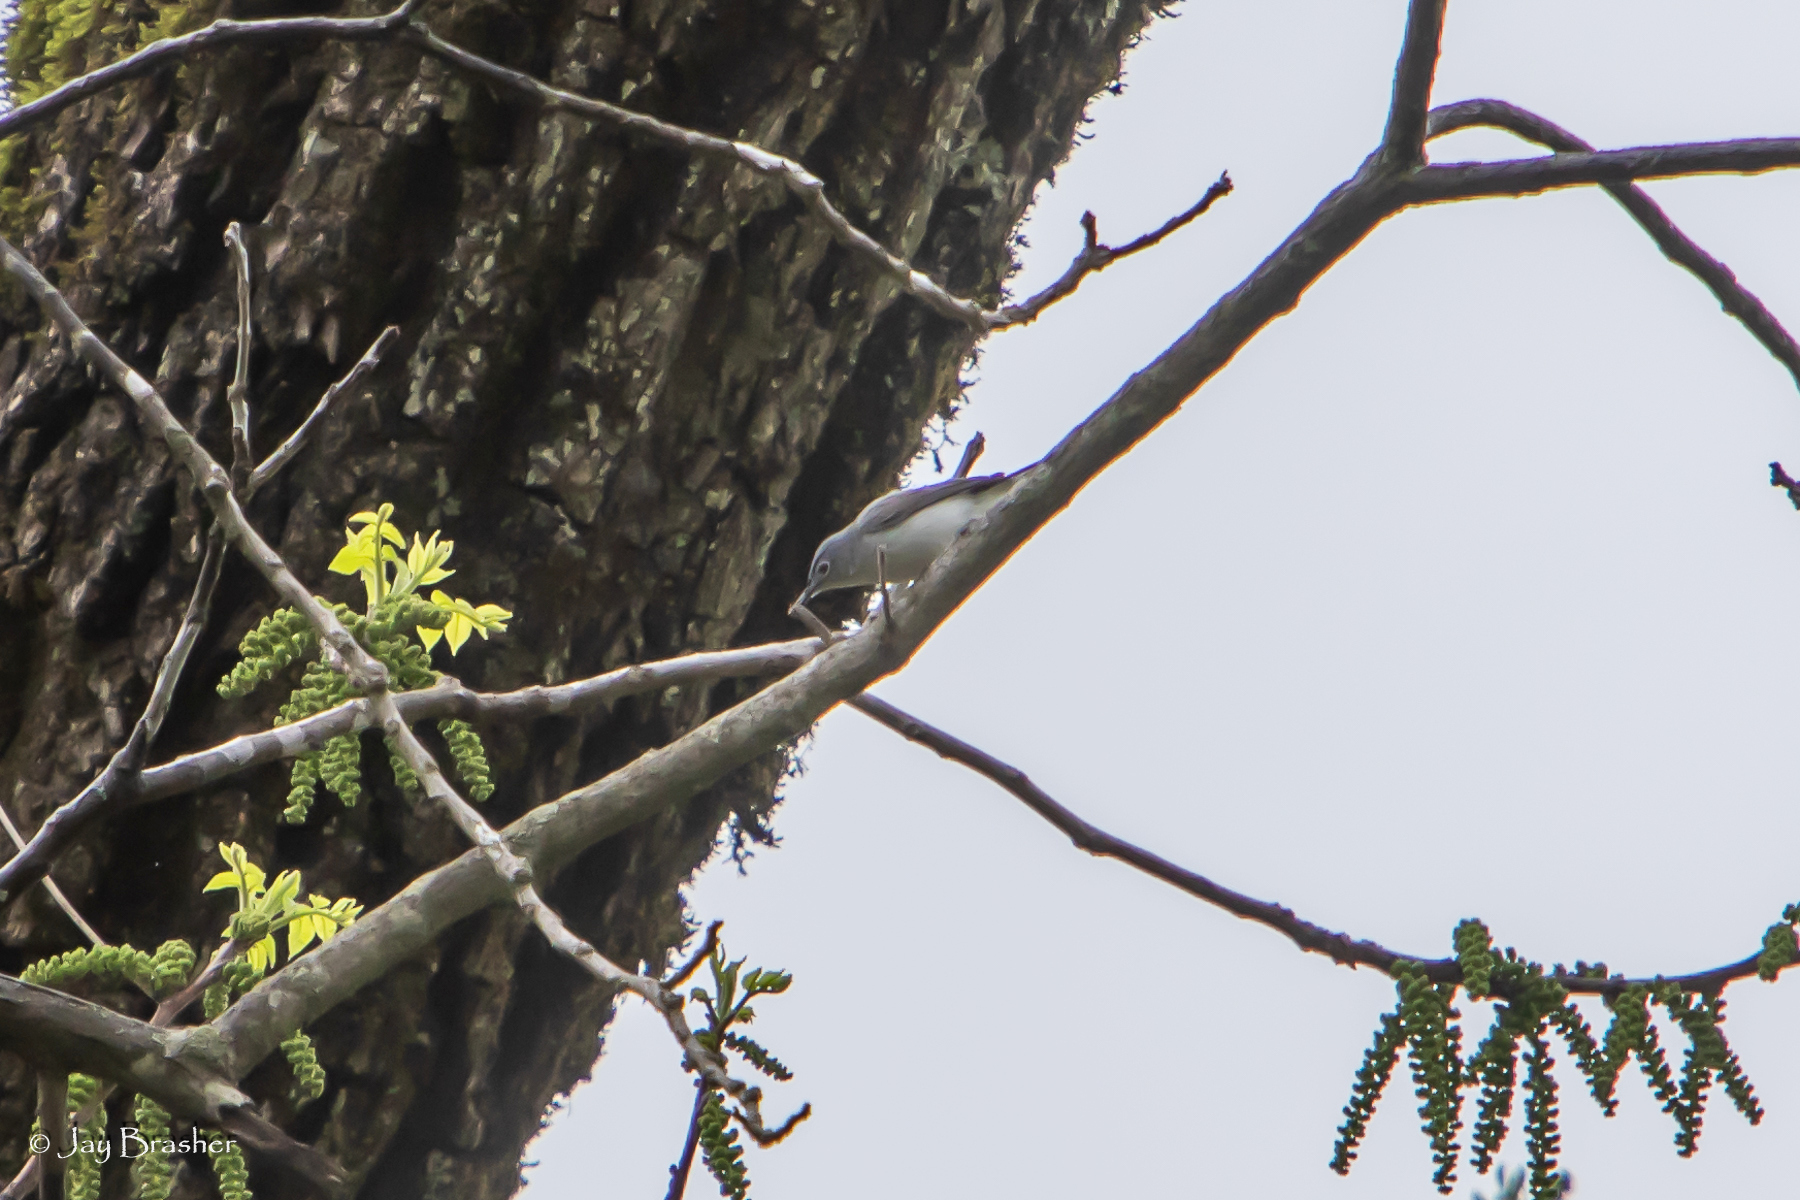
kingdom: Animalia
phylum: Chordata
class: Aves
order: Passeriformes
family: Polioptilidae
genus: Polioptila
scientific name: Polioptila caerulea
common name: Blue-gray gnatcatcher
